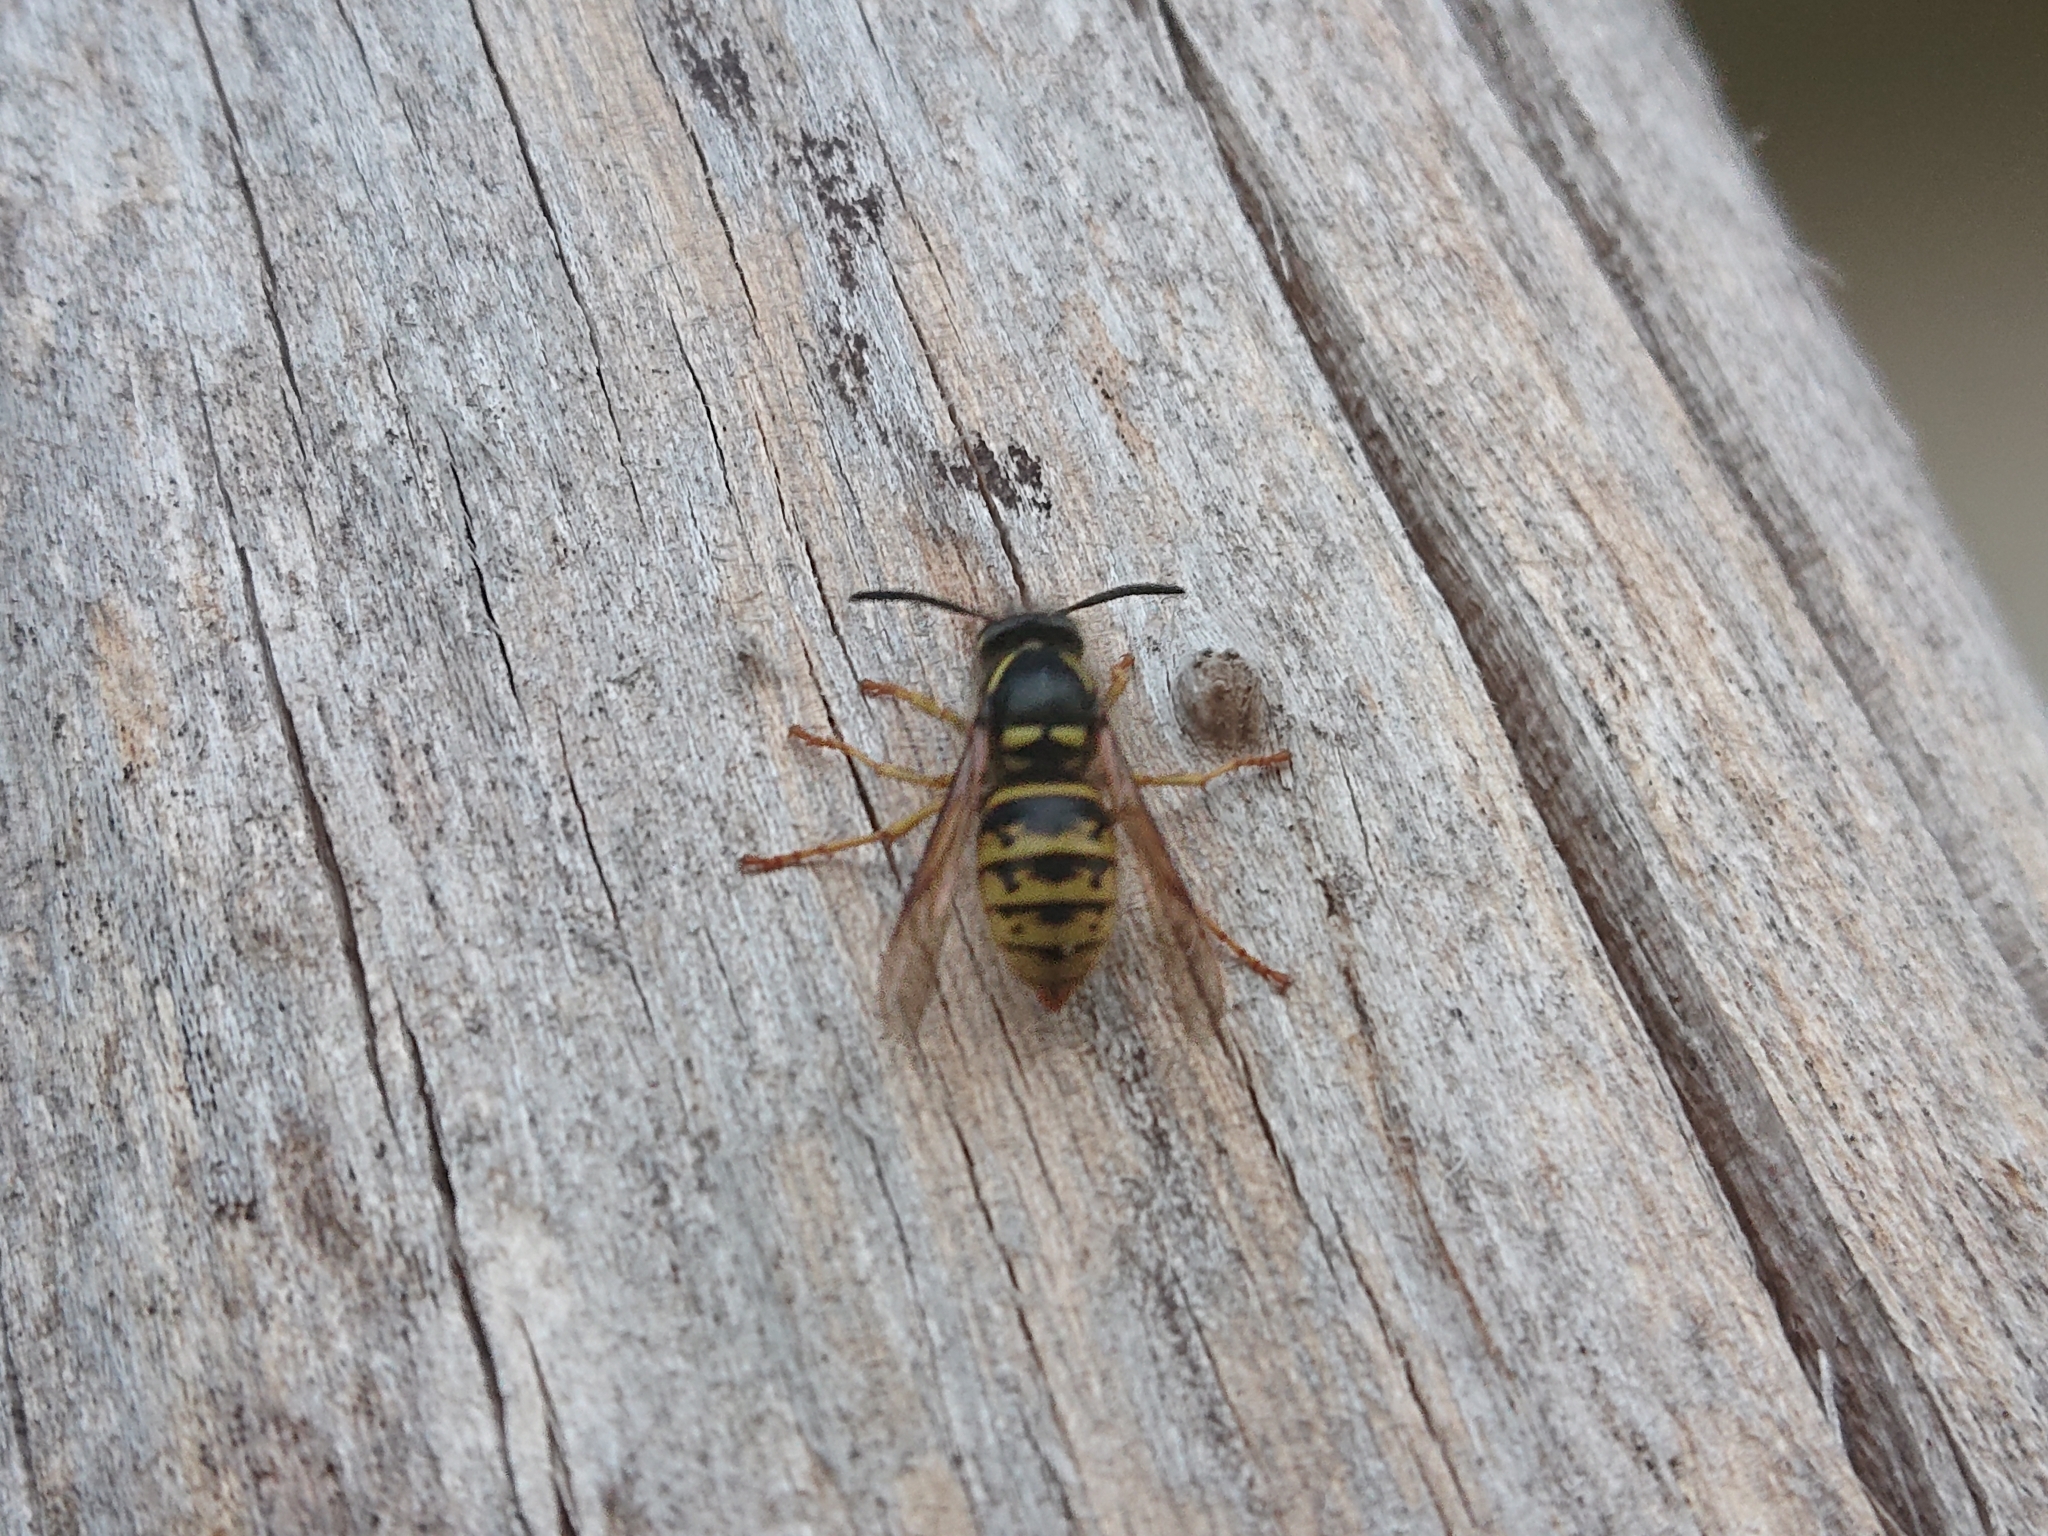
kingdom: Animalia
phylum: Arthropoda
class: Insecta
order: Hymenoptera
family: Vespidae
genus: Vespula
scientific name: Vespula vulgaris
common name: Common wasp
